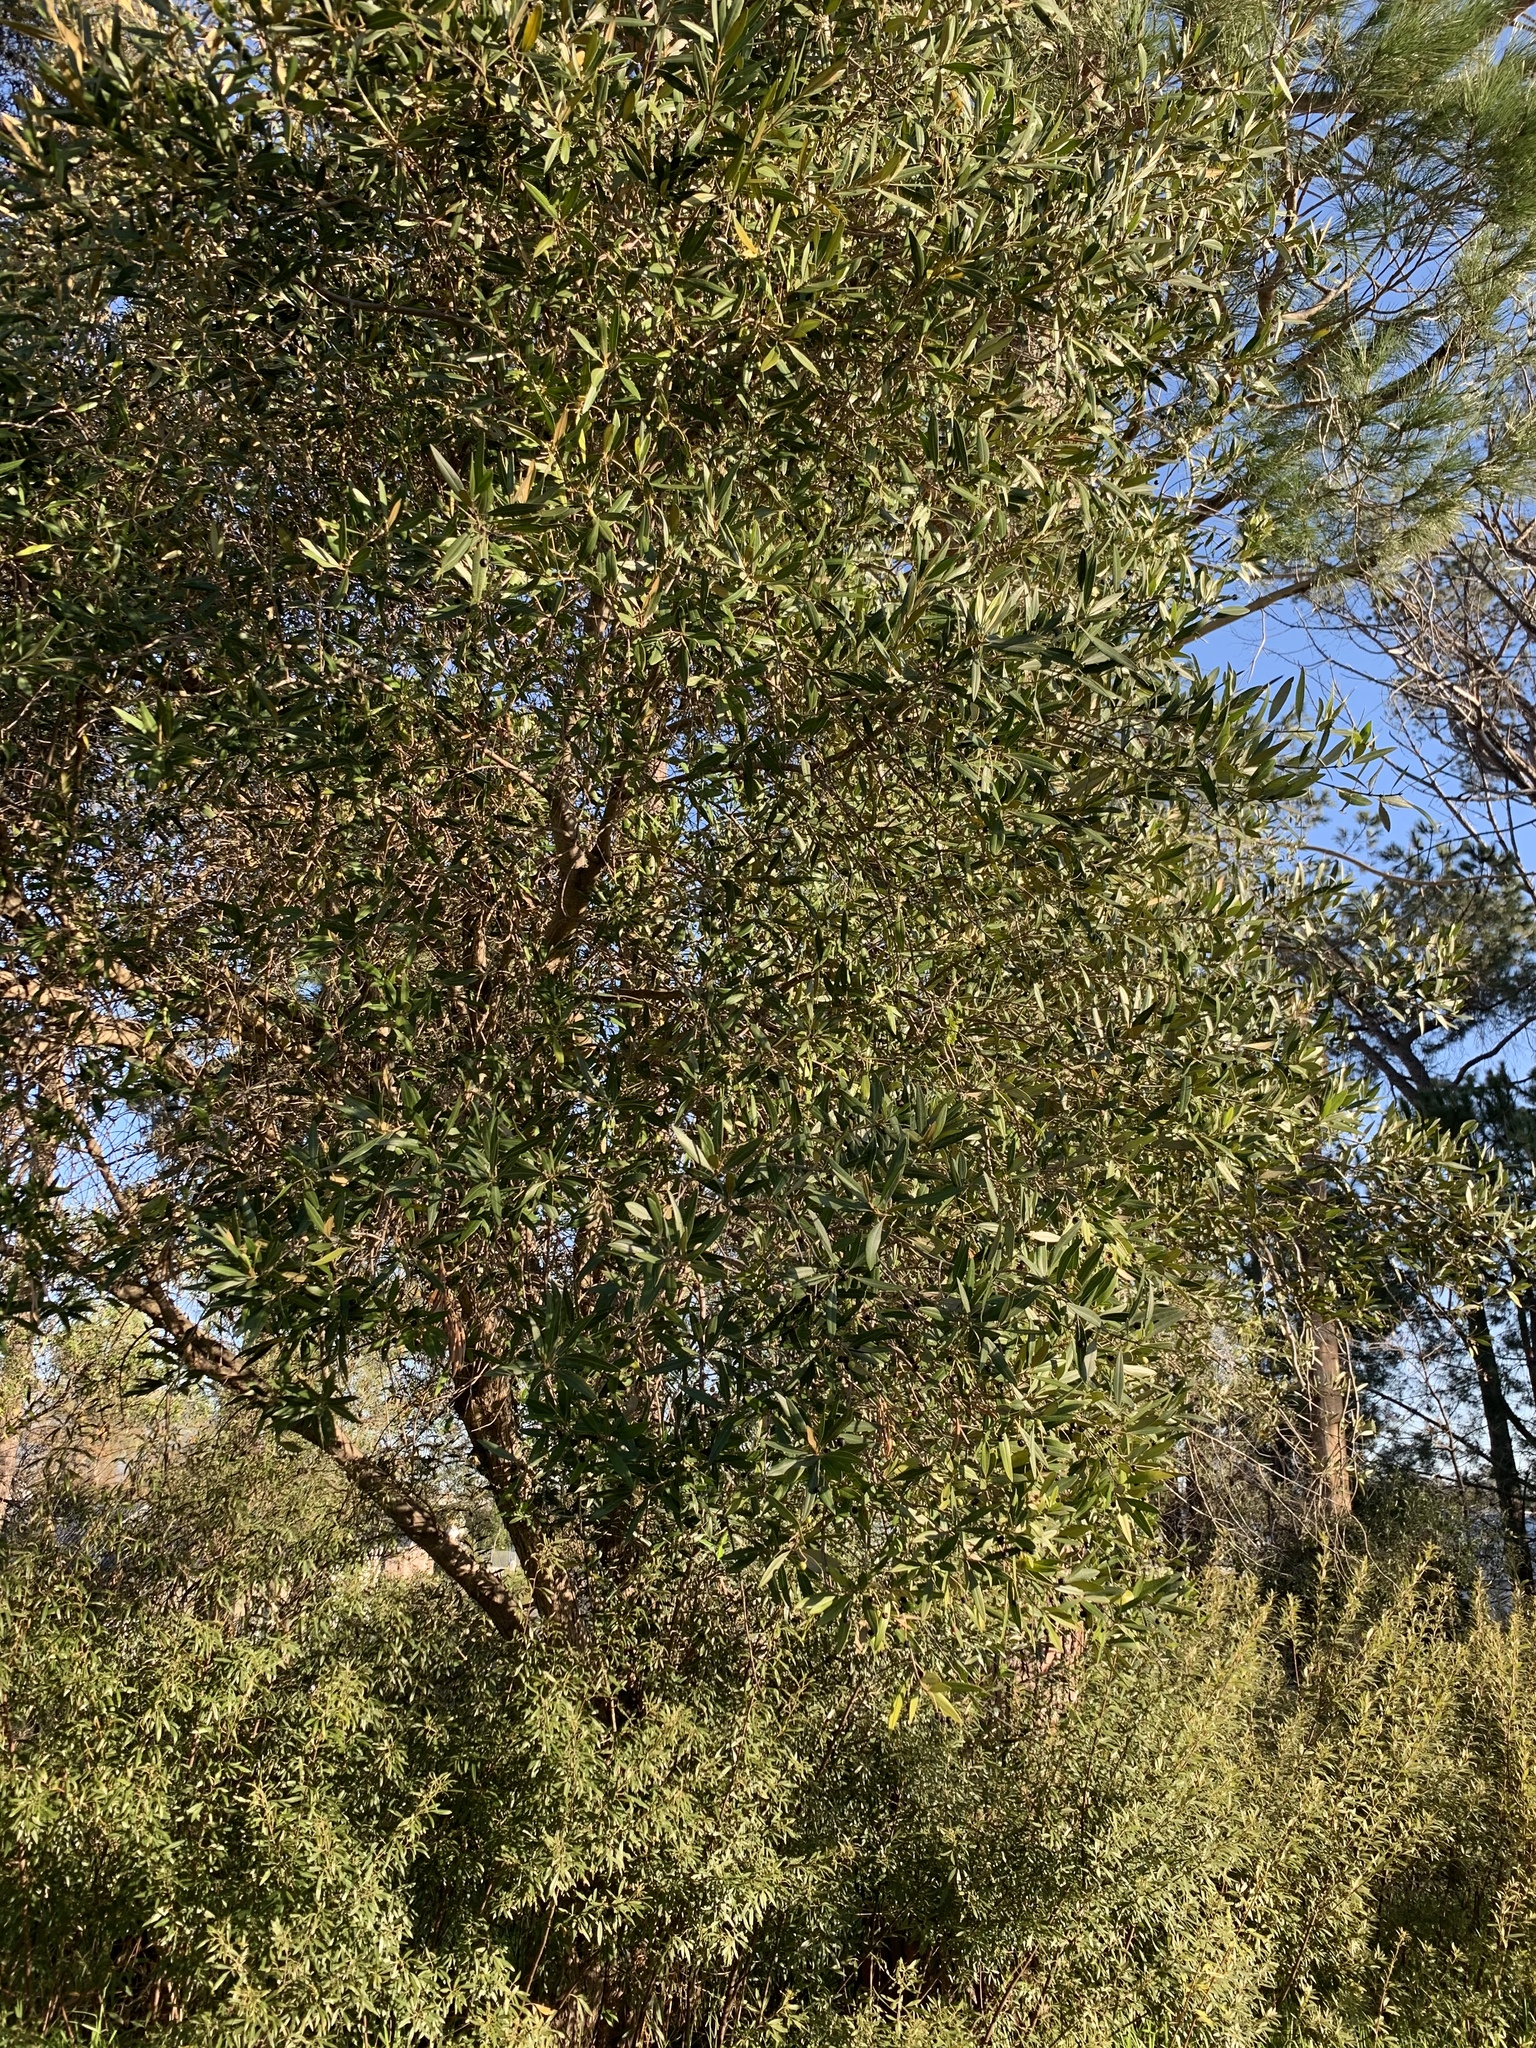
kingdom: Plantae
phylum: Tracheophyta
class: Magnoliopsida
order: Lamiales
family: Oleaceae
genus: Olea
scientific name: Olea europaea
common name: Olive
